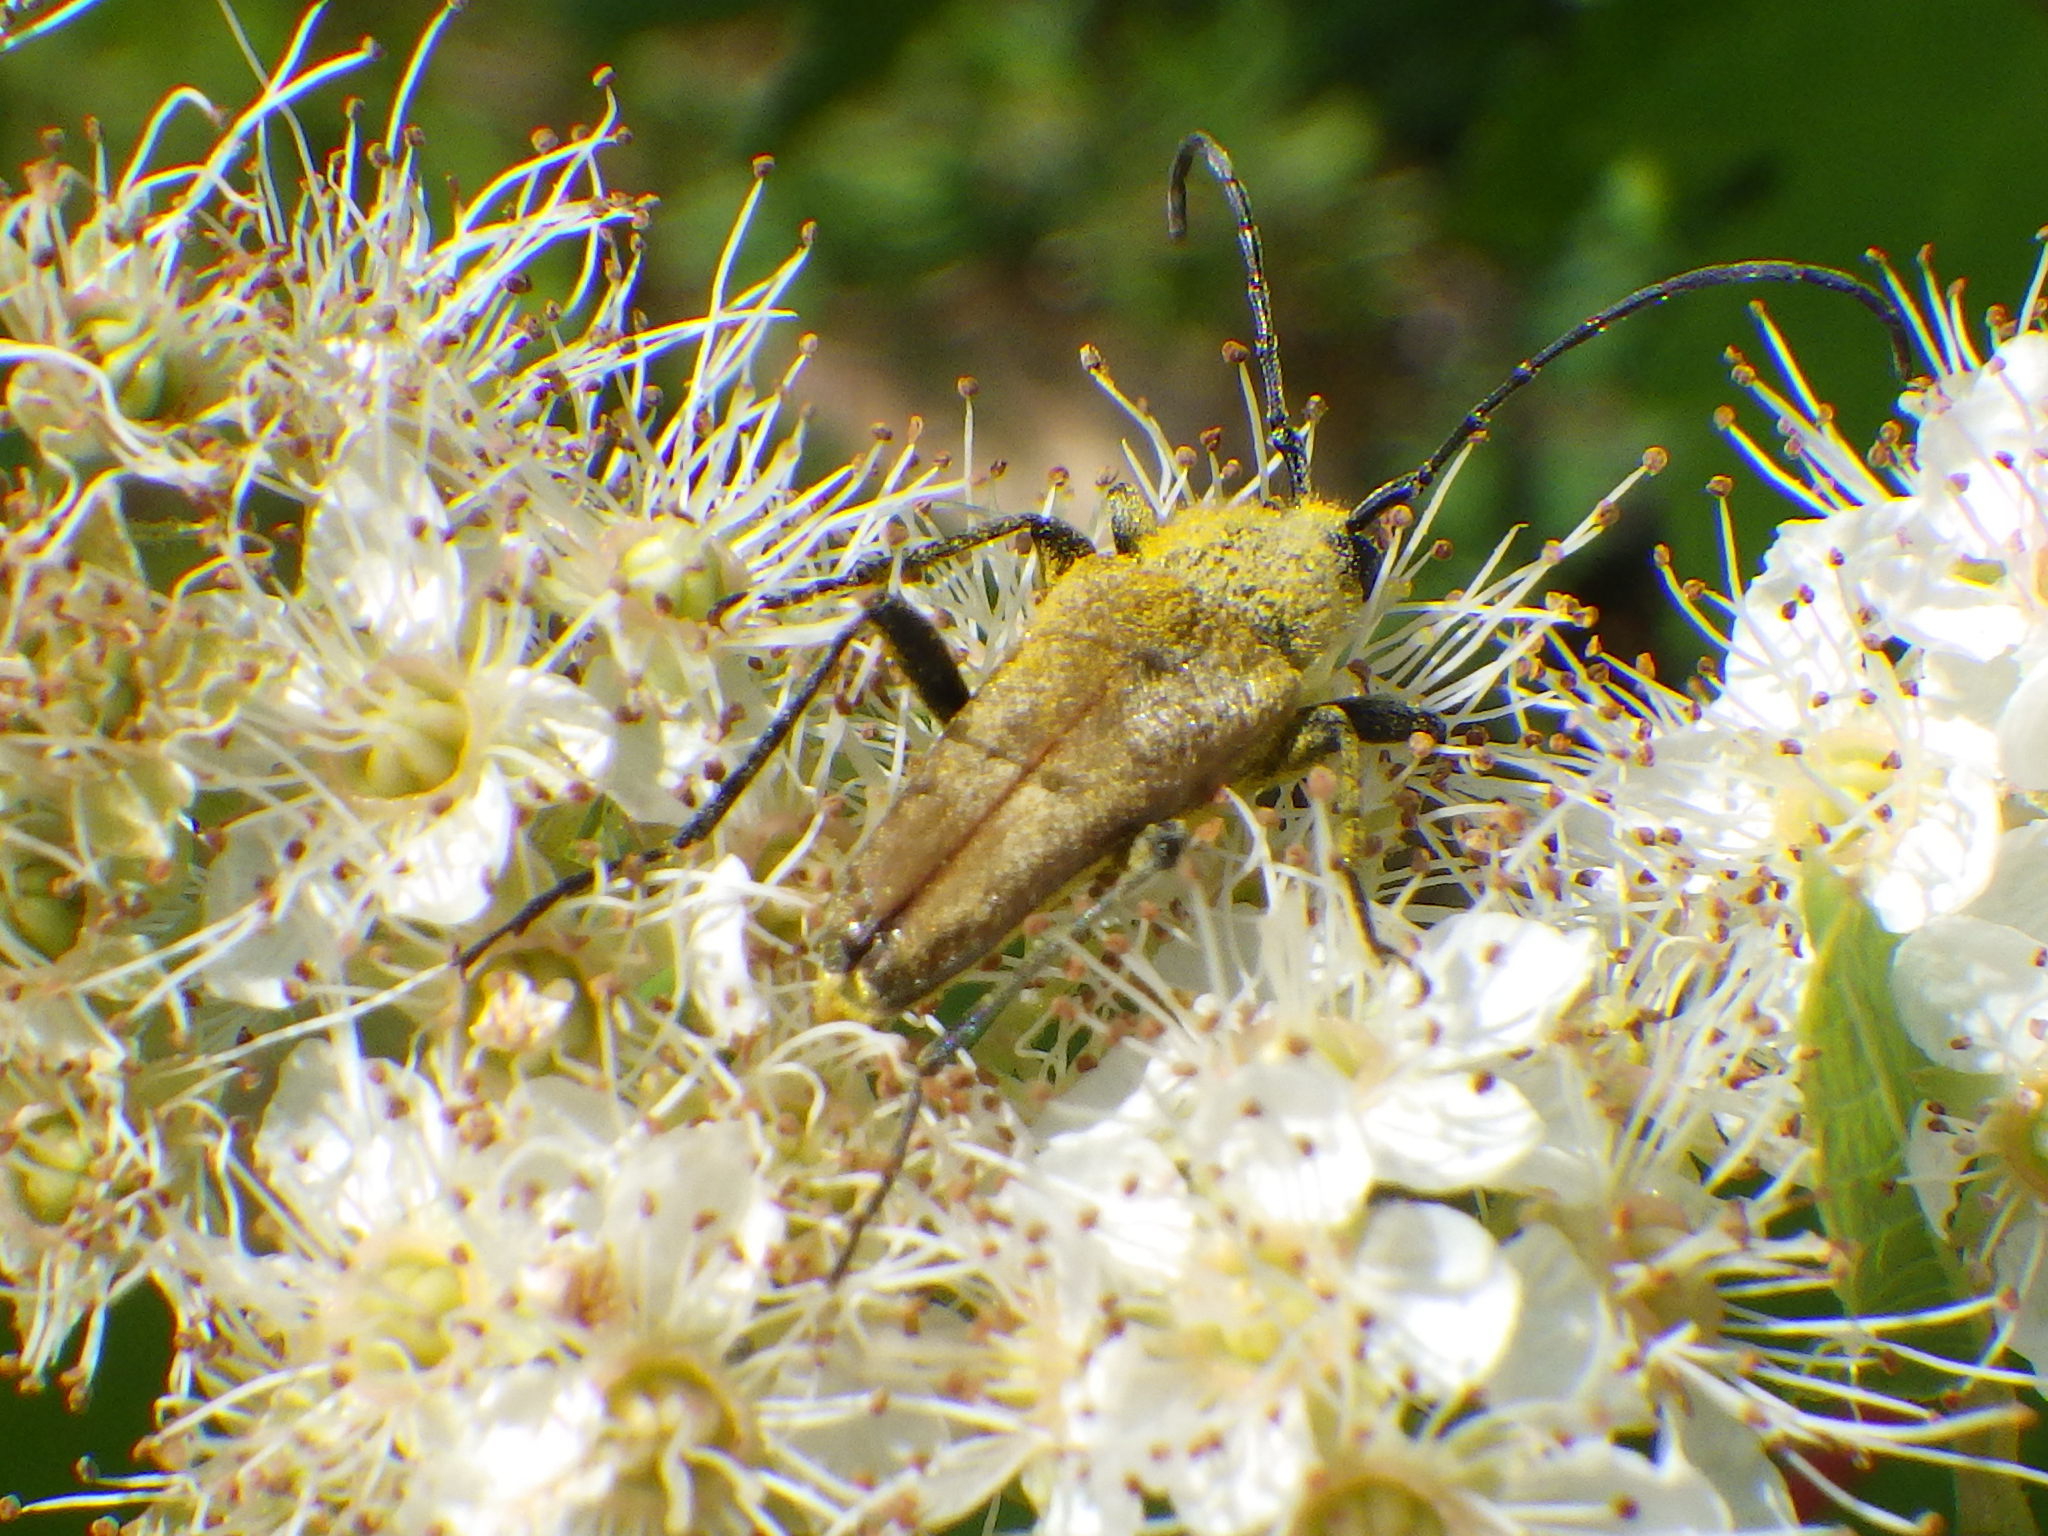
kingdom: Animalia
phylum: Arthropoda
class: Insecta
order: Coleoptera
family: Cerambycidae
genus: Cosmosalia
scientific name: Cosmosalia chrysocoma
